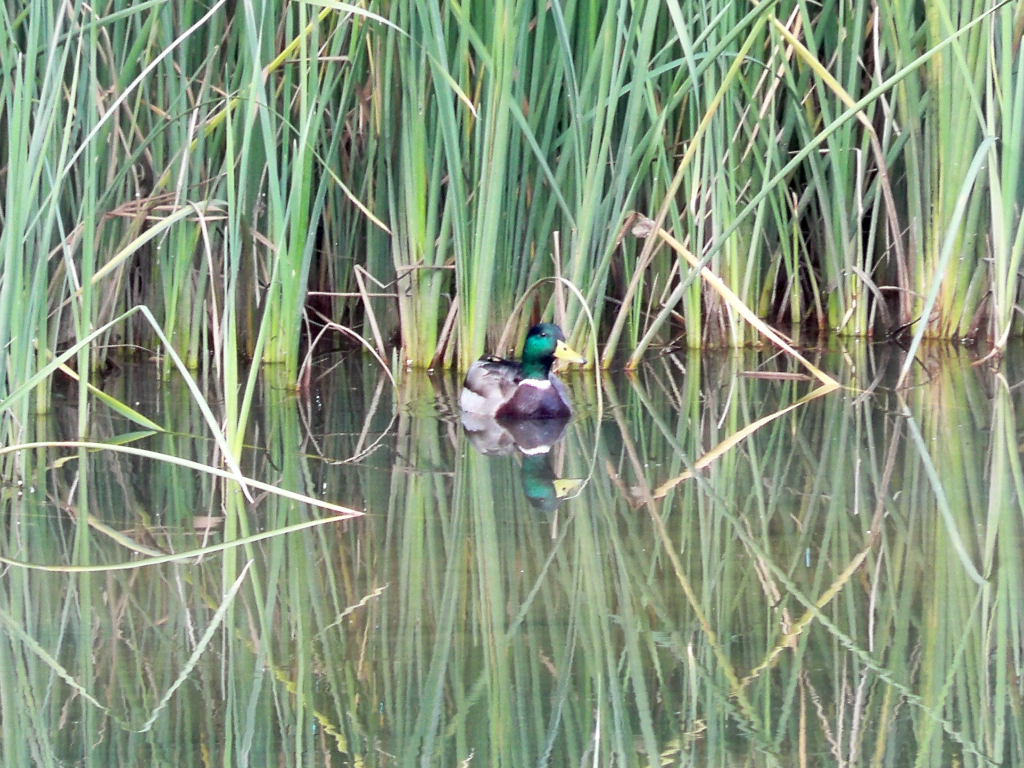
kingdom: Animalia
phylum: Chordata
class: Aves
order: Anseriformes
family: Anatidae
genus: Anas
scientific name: Anas platyrhynchos
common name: Mallard
